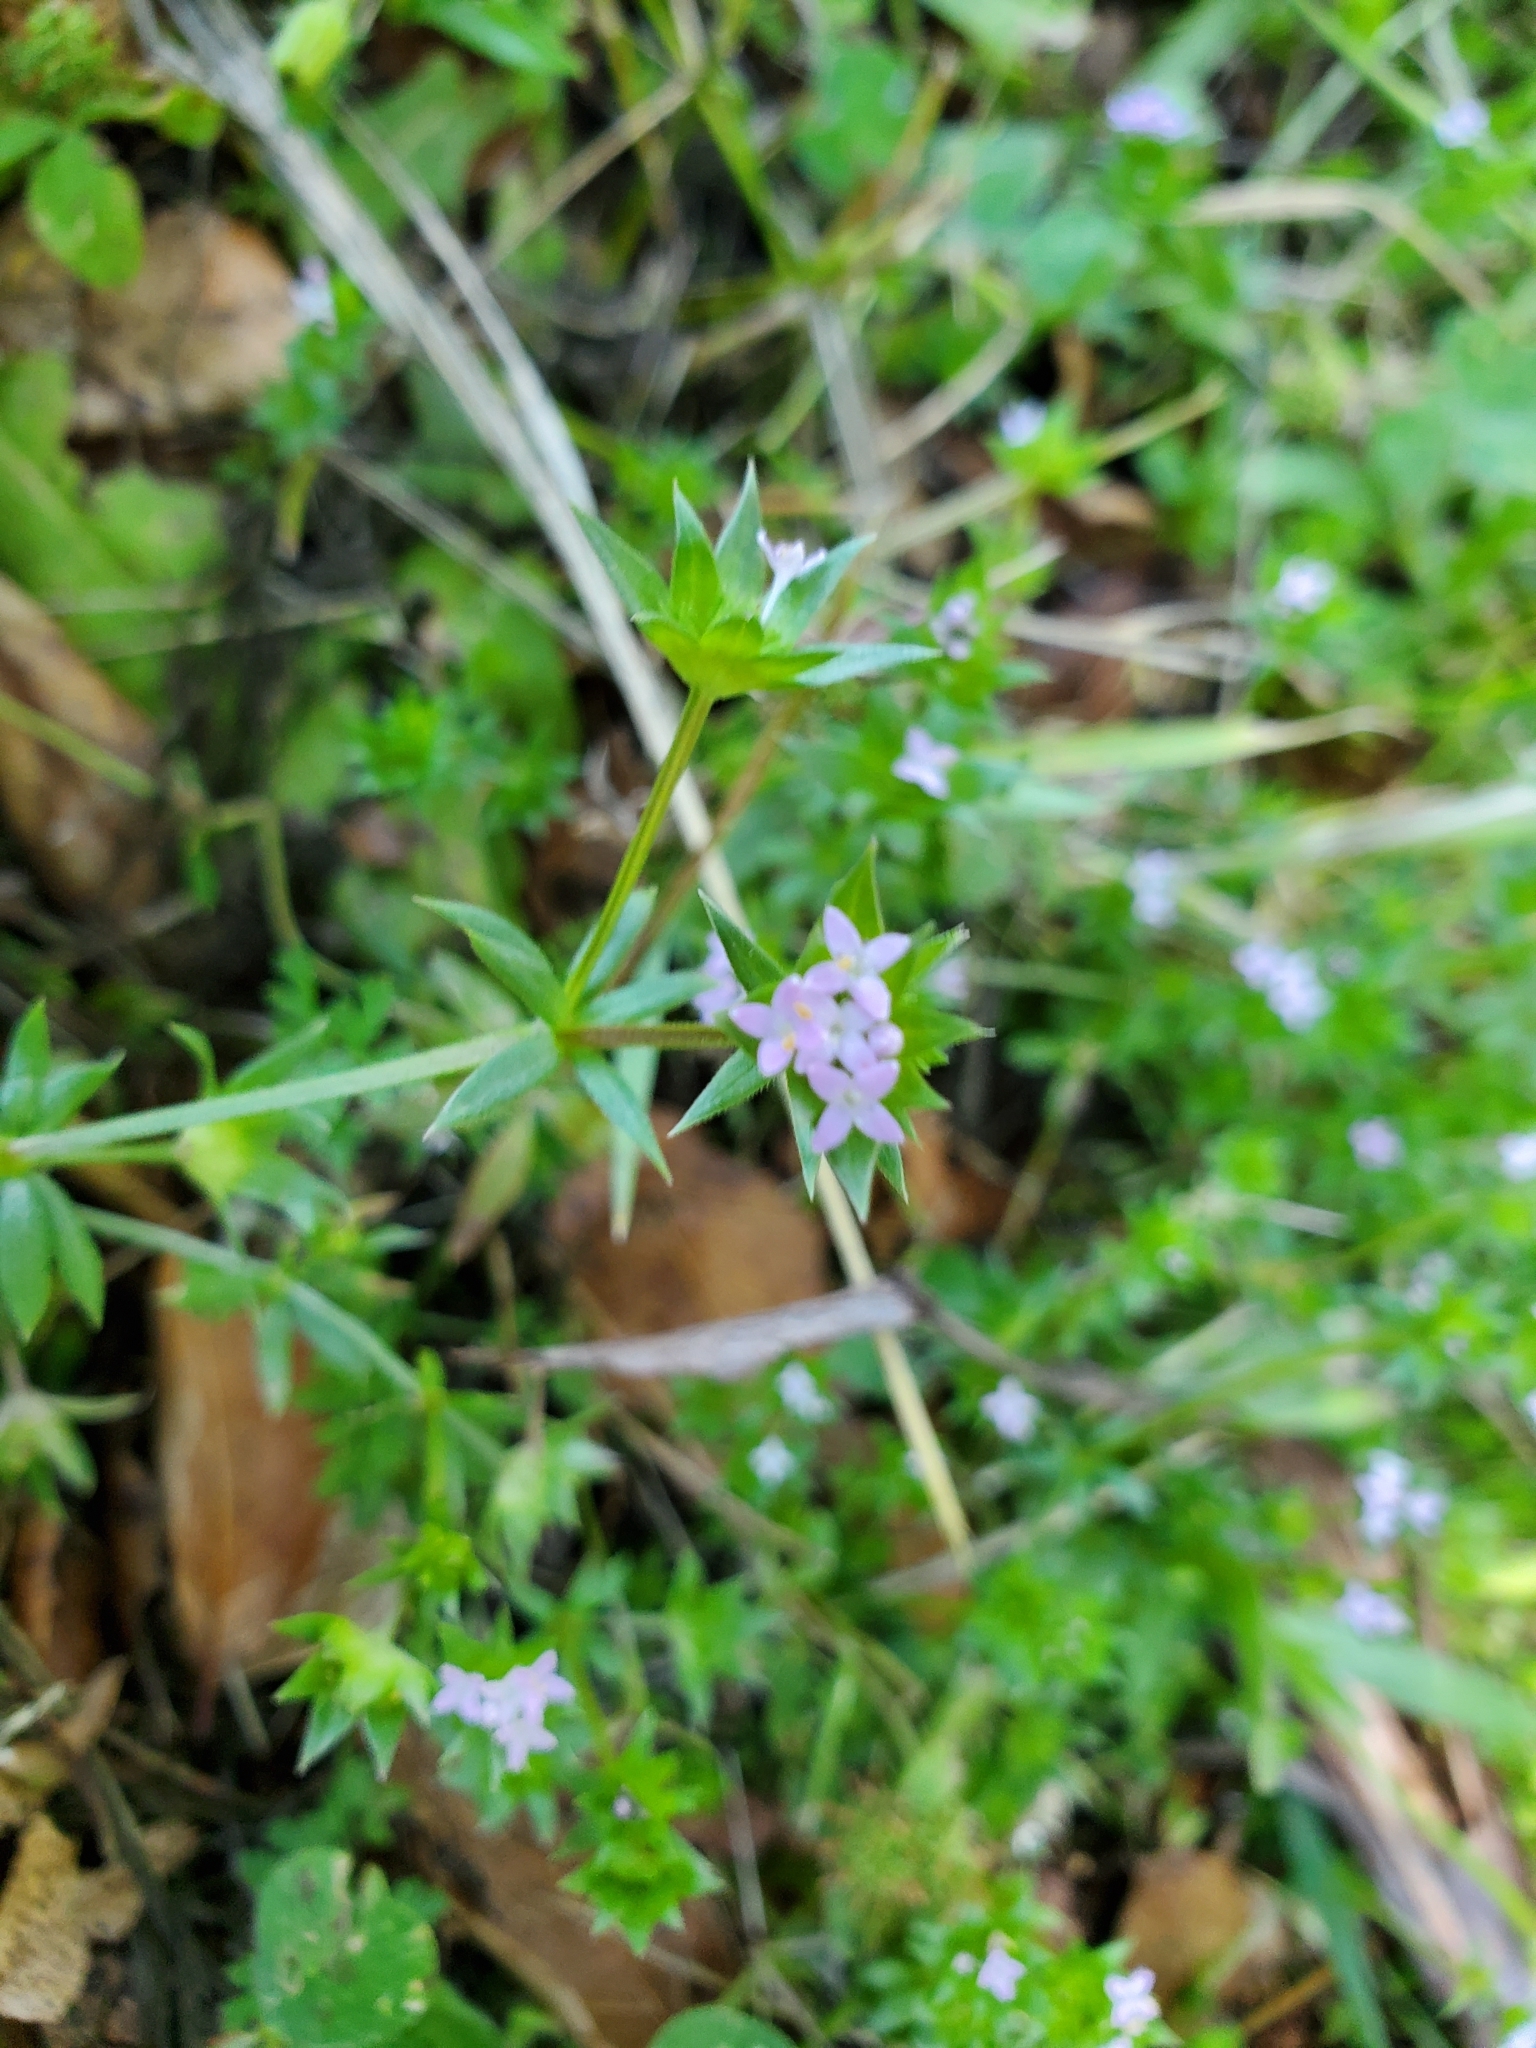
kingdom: Plantae
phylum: Tracheophyta
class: Magnoliopsida
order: Gentianales
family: Rubiaceae
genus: Sherardia
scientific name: Sherardia arvensis
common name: Field madder
